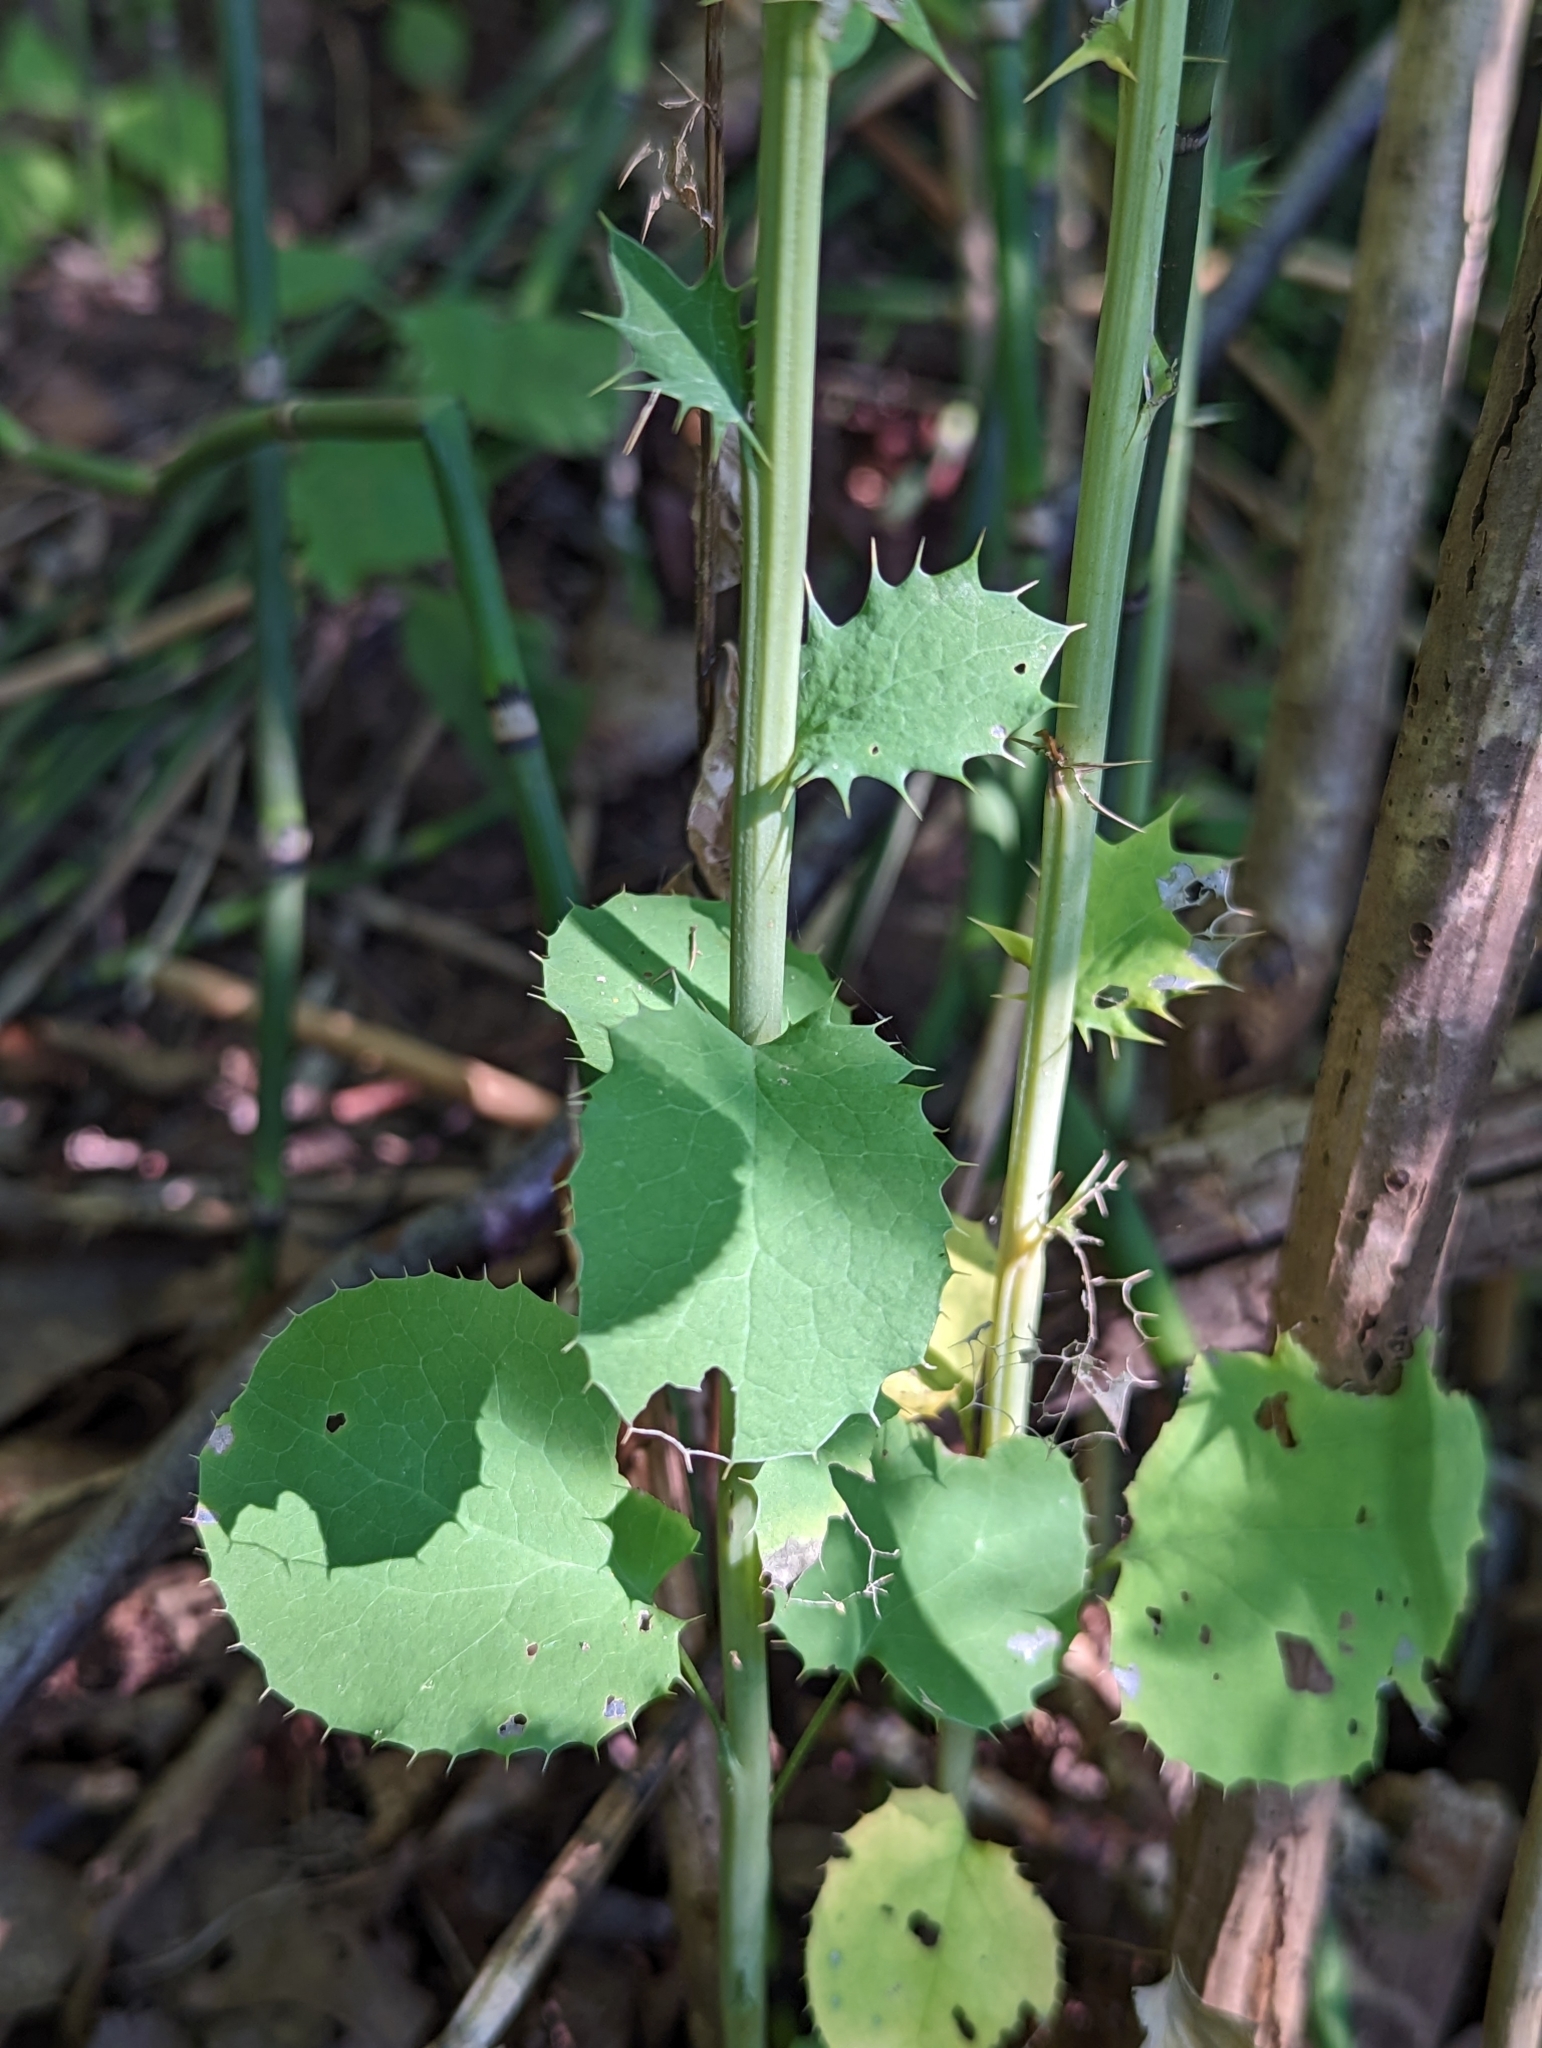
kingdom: Plantae
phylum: Tracheophyta
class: Magnoliopsida
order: Ranunculales
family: Berberidaceae
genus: Berberis
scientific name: Berberis vulgaris
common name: Barberry
